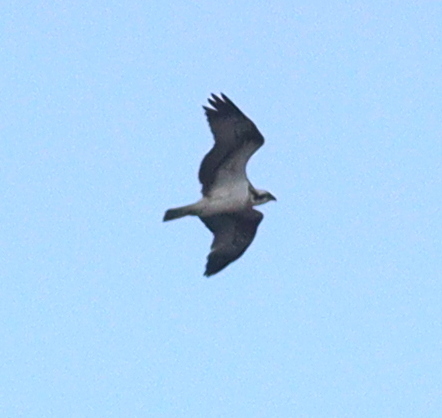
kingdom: Animalia
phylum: Chordata
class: Aves
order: Accipitriformes
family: Pandionidae
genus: Pandion
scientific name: Pandion haliaetus
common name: Osprey
